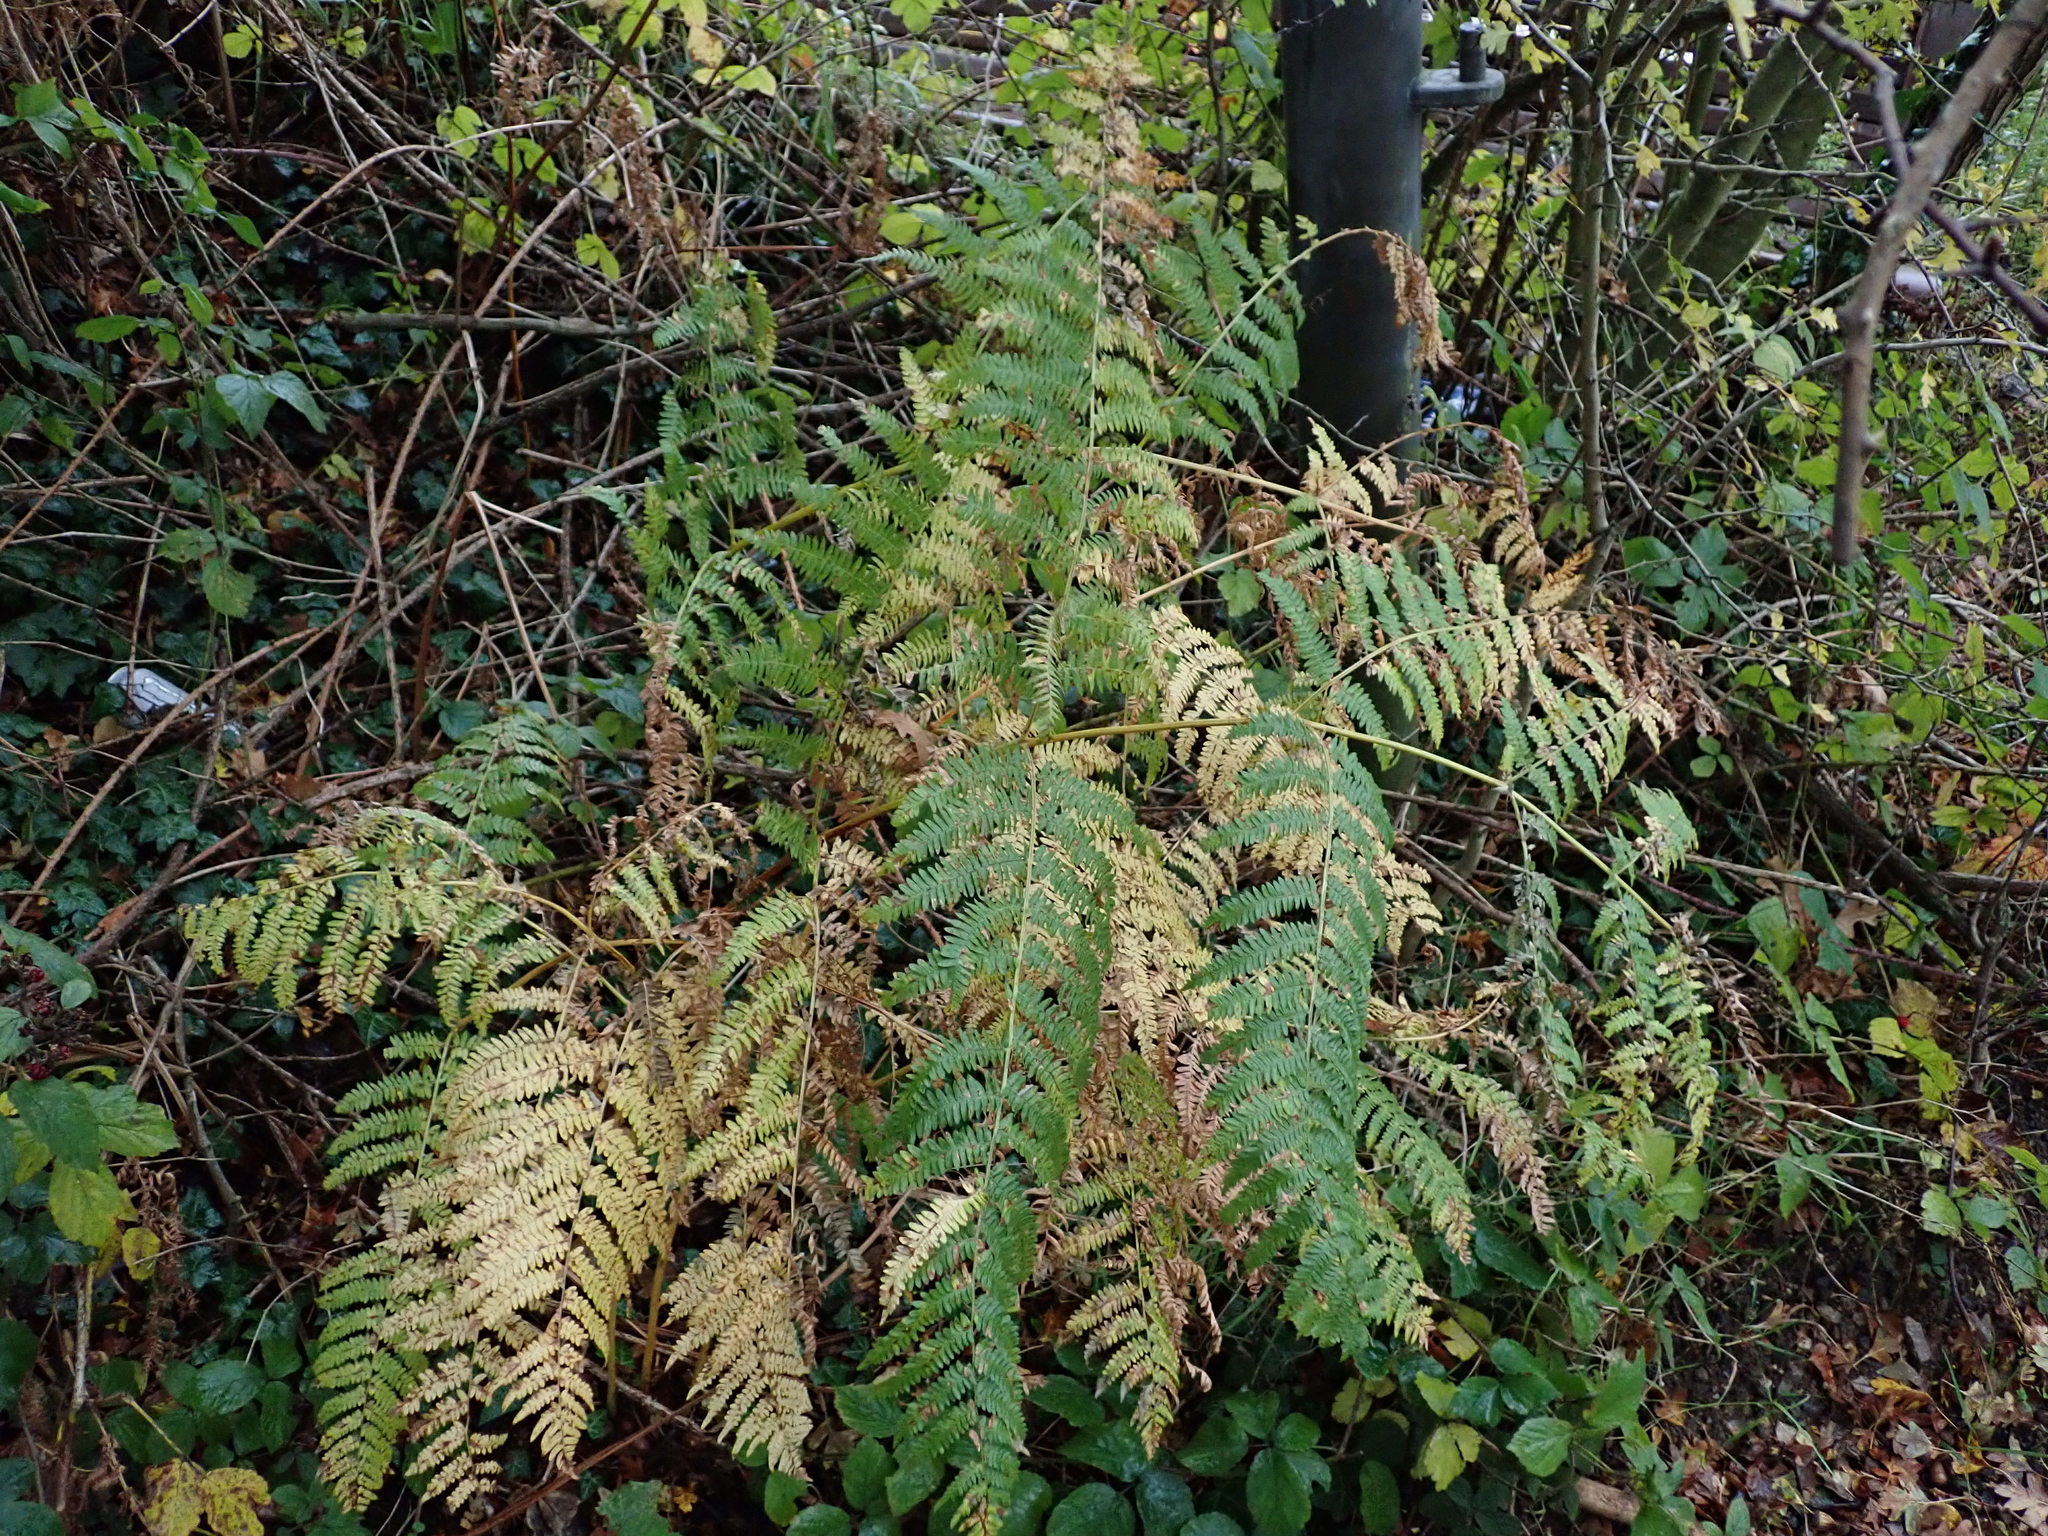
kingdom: Plantae
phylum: Tracheophyta
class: Polypodiopsida
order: Polypodiales
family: Dennstaedtiaceae
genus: Pteridium
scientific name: Pteridium aquilinum
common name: Bracken
